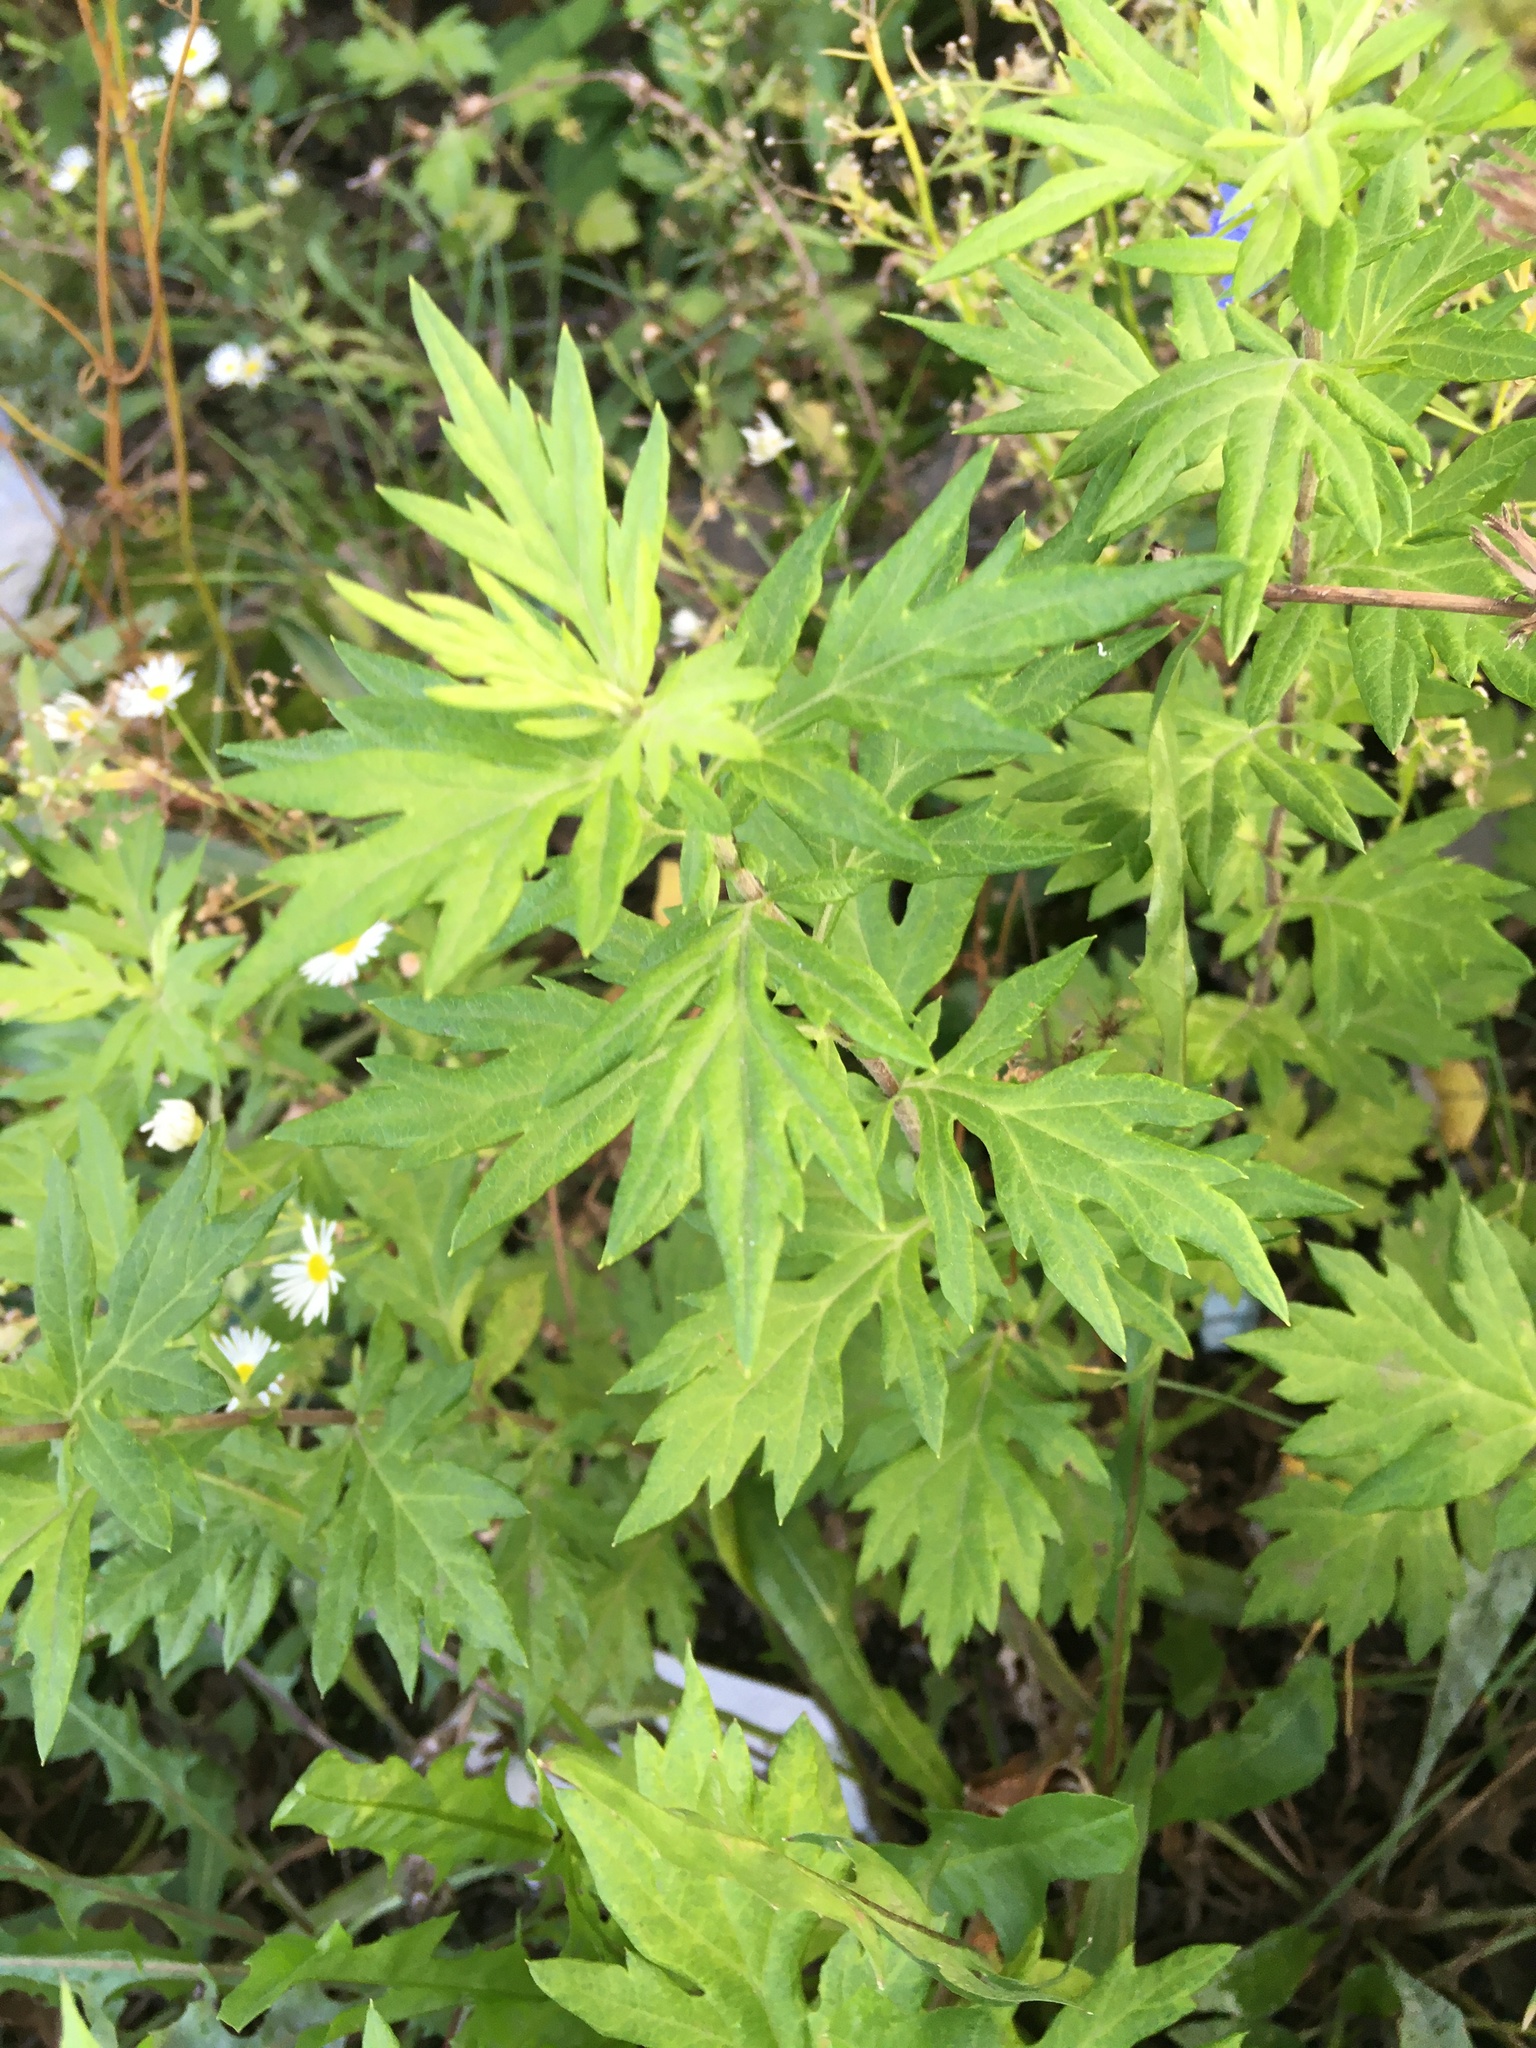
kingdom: Plantae
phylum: Tracheophyta
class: Magnoliopsida
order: Asterales
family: Asteraceae
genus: Artemisia
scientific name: Artemisia vulgaris
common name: Mugwort
